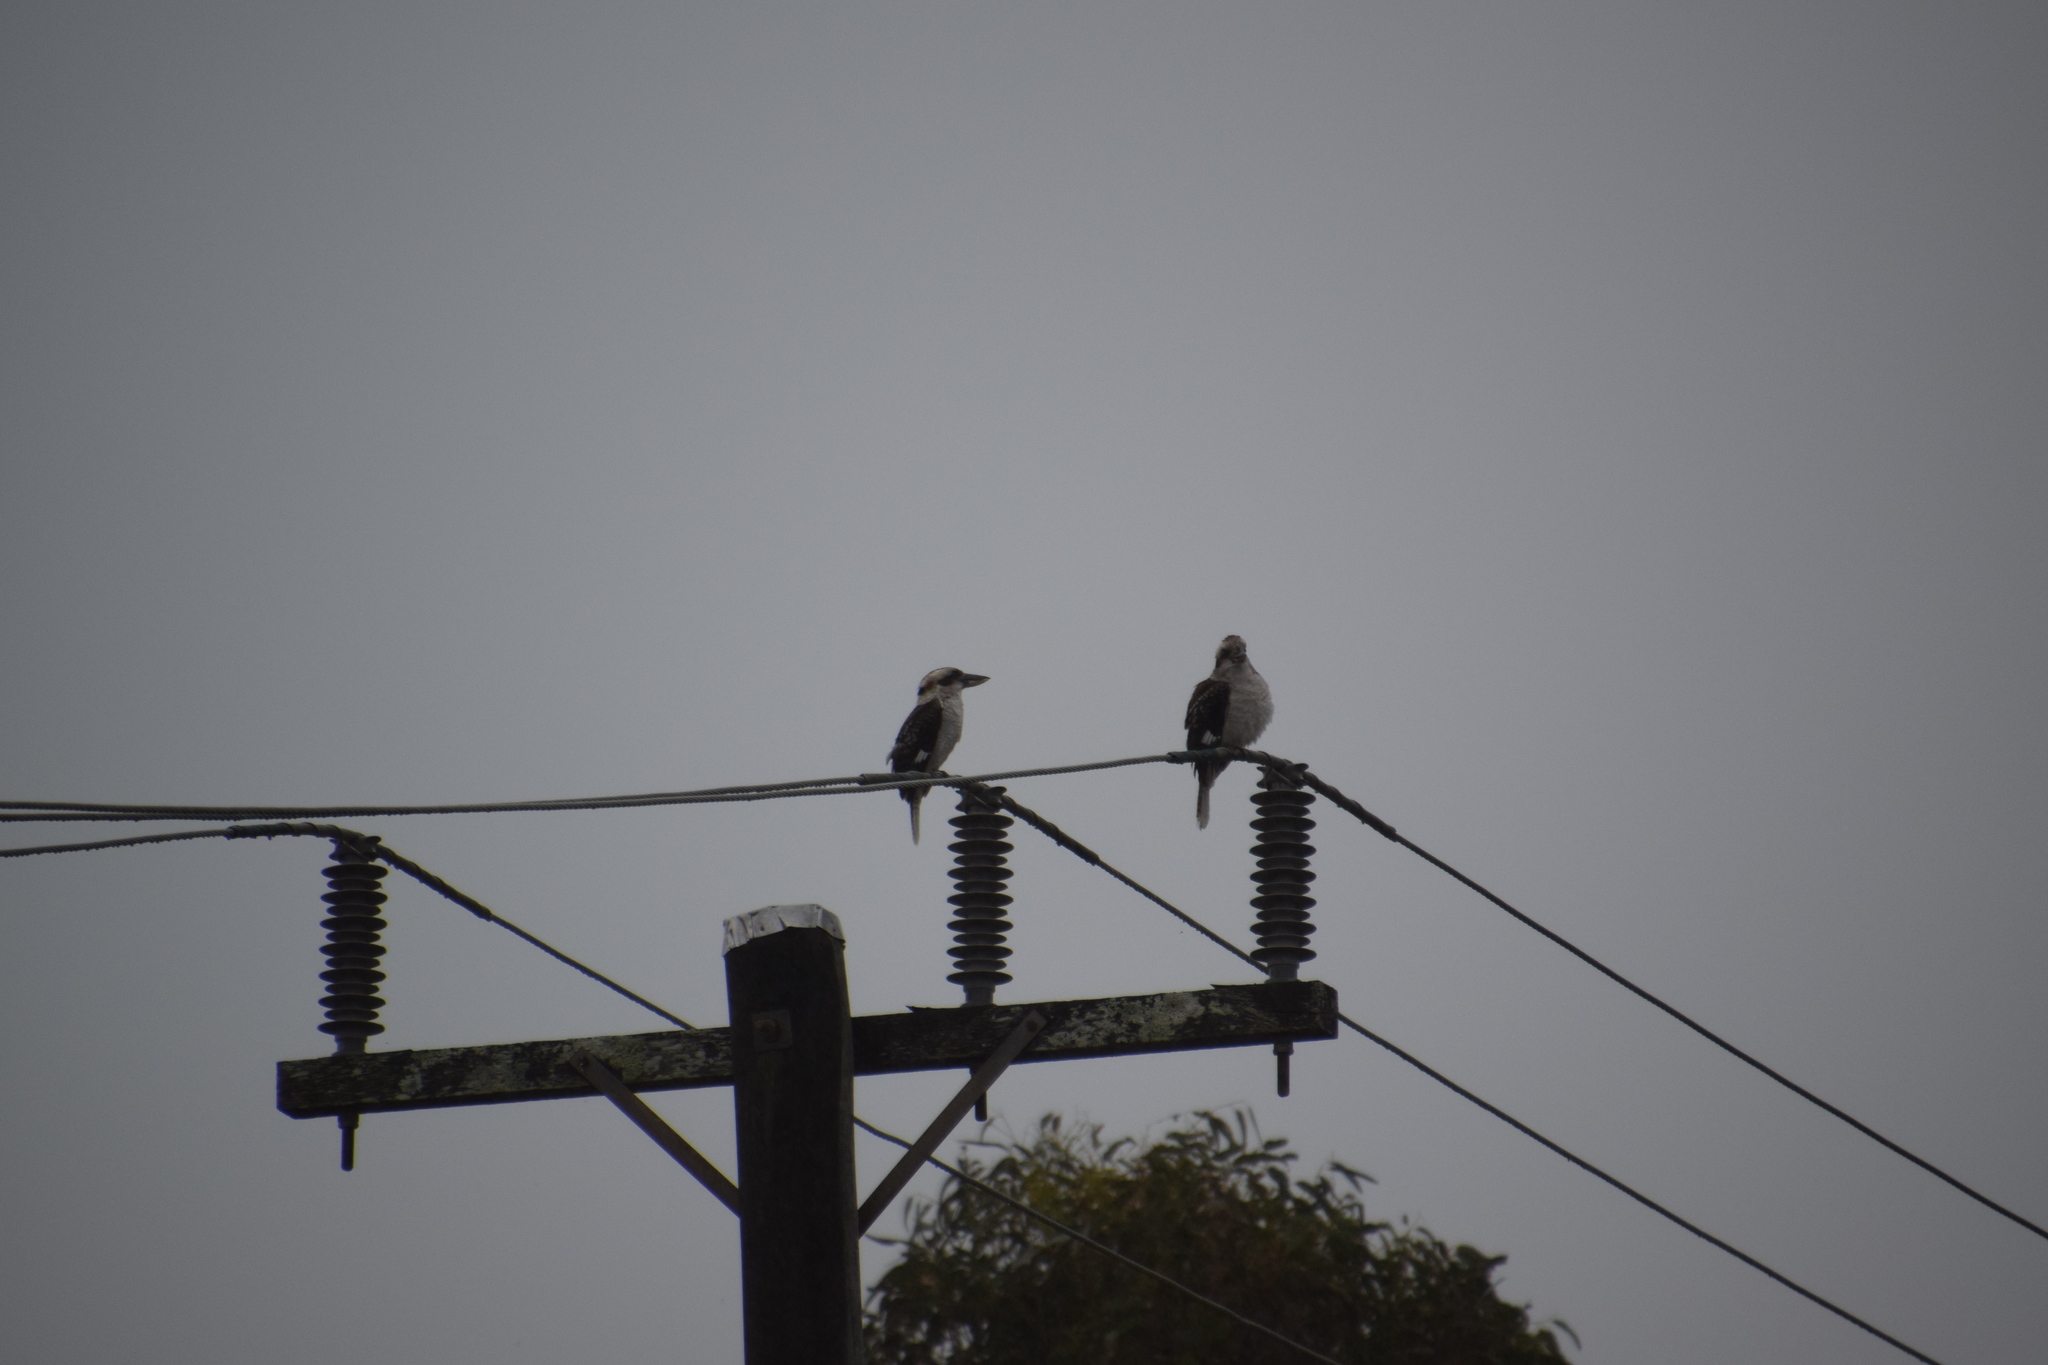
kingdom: Animalia
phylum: Chordata
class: Aves
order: Coraciiformes
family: Alcedinidae
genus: Dacelo
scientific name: Dacelo novaeguineae
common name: Laughing kookaburra
